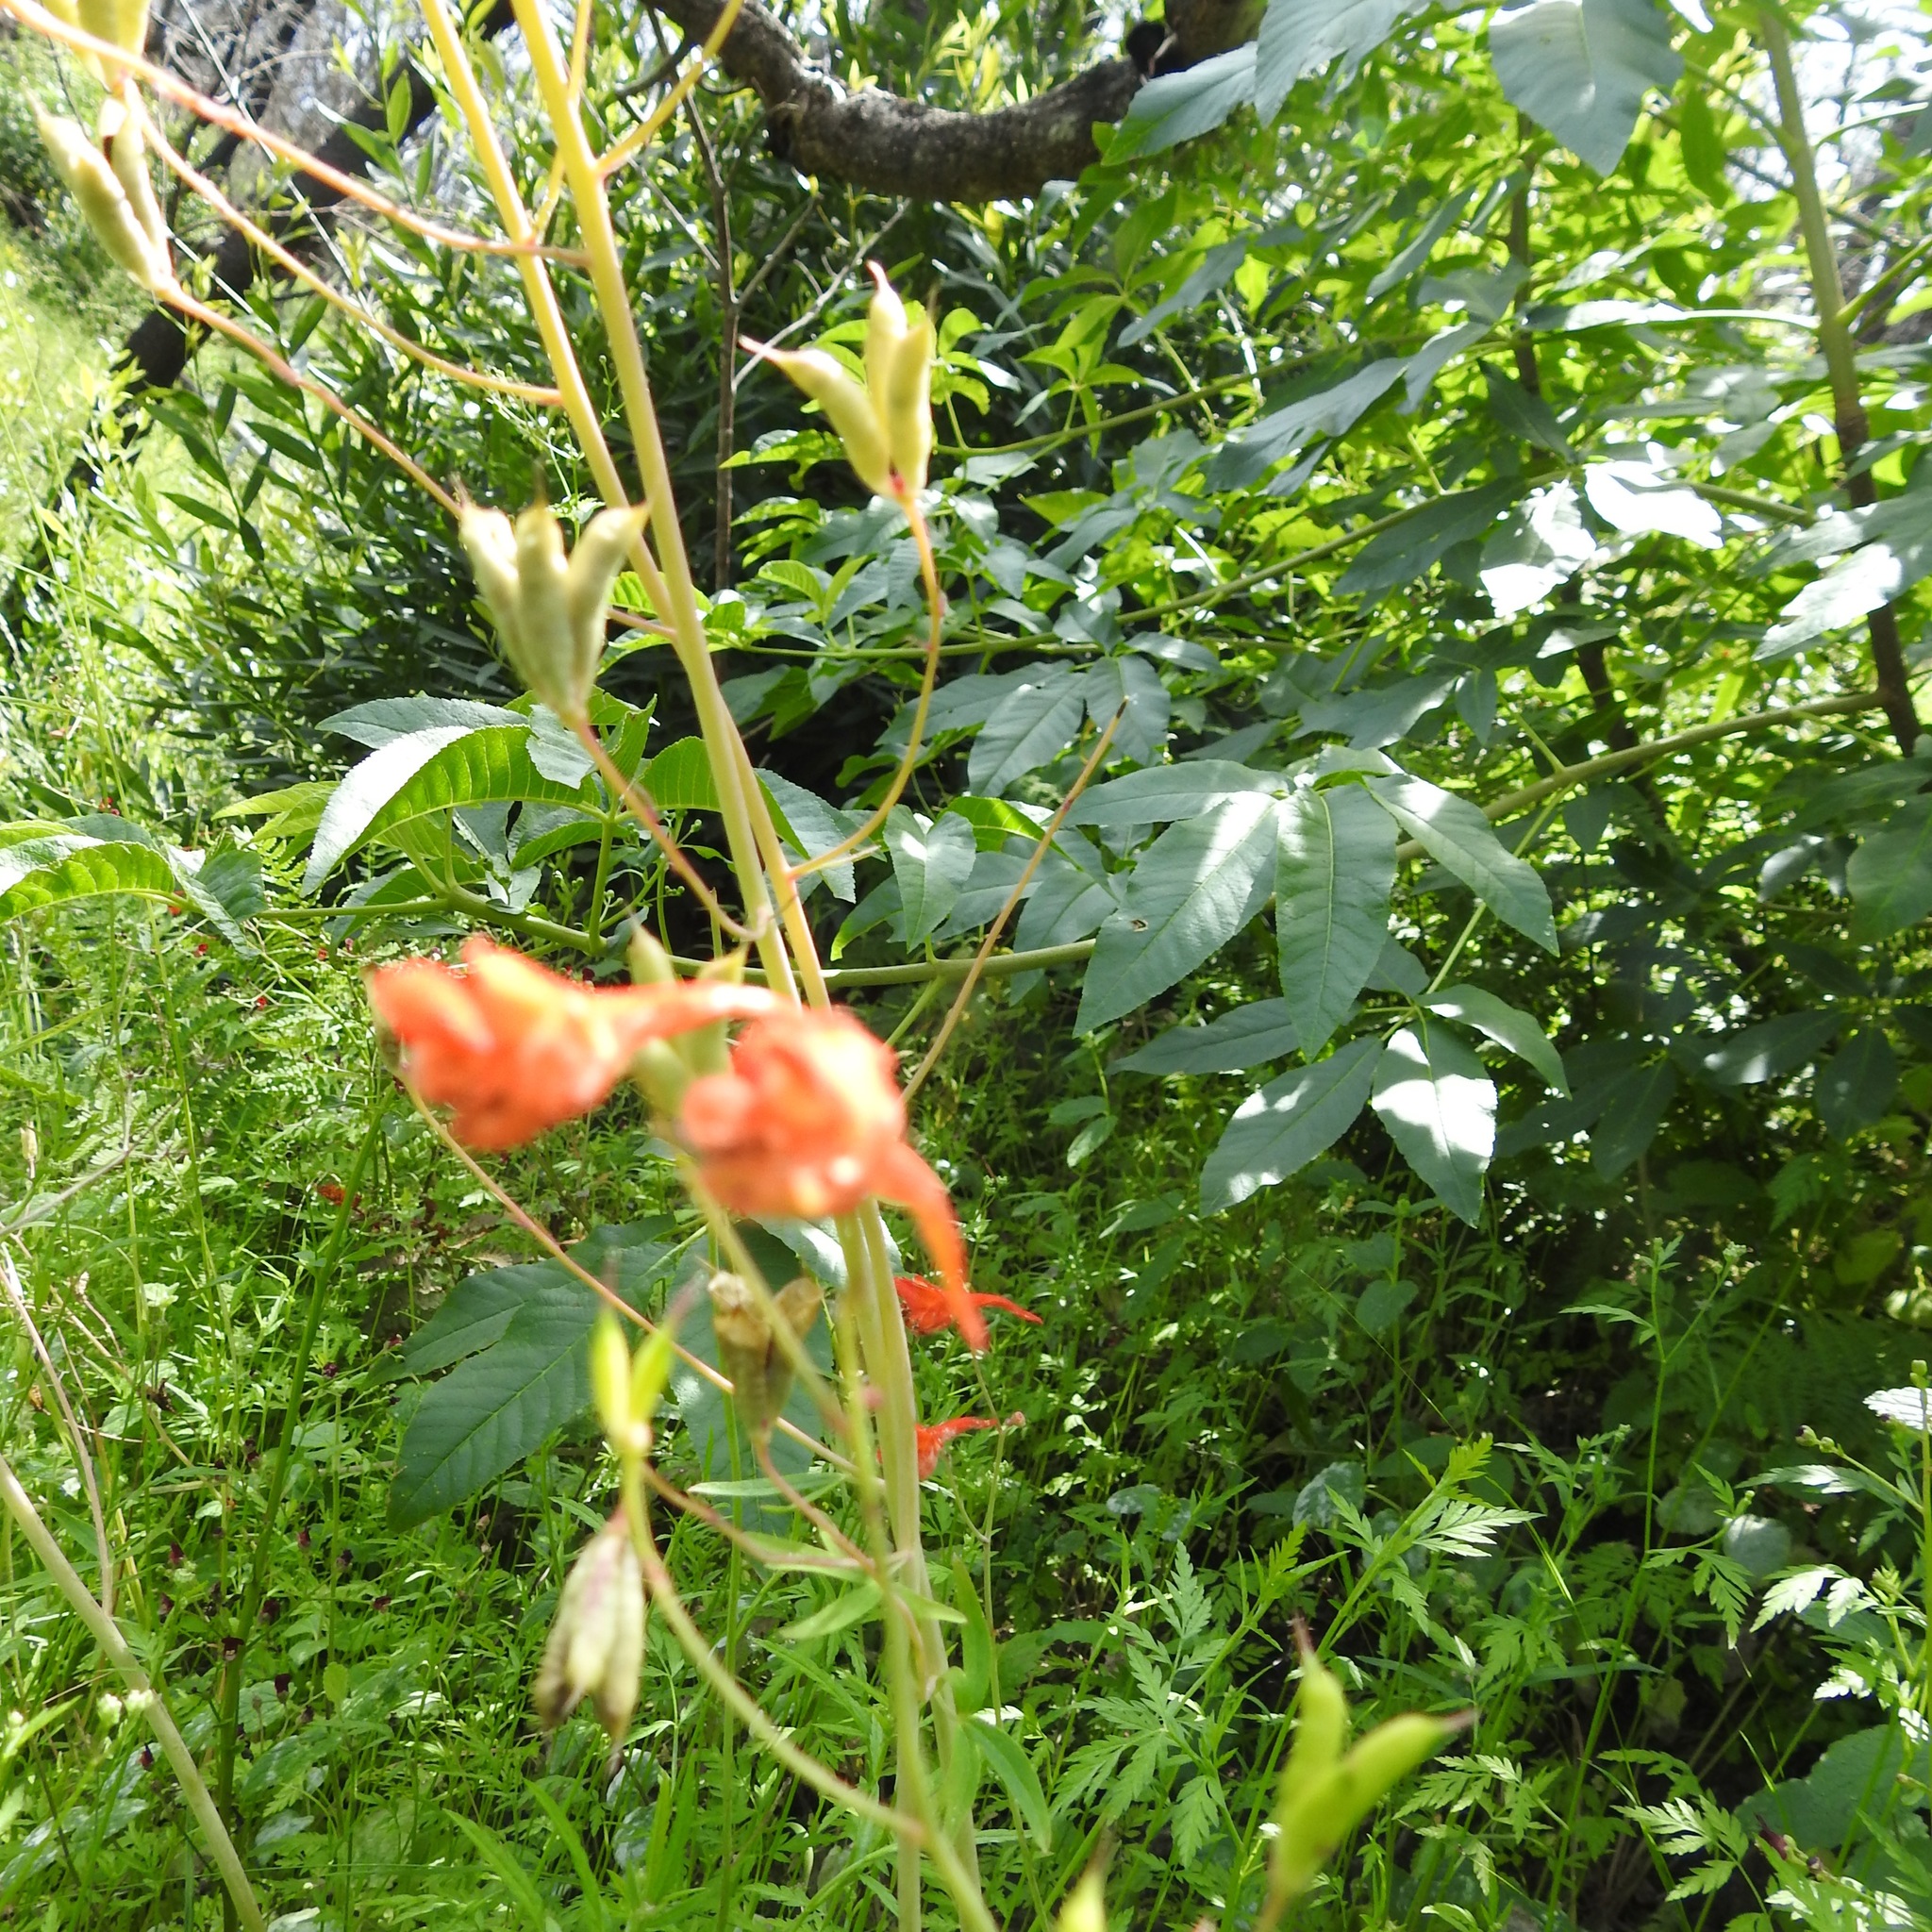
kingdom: Plantae
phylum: Tracheophyta
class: Magnoliopsida
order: Ranunculales
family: Ranunculaceae
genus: Delphinium
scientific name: Delphinium nudicaule
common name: Red larkspur
